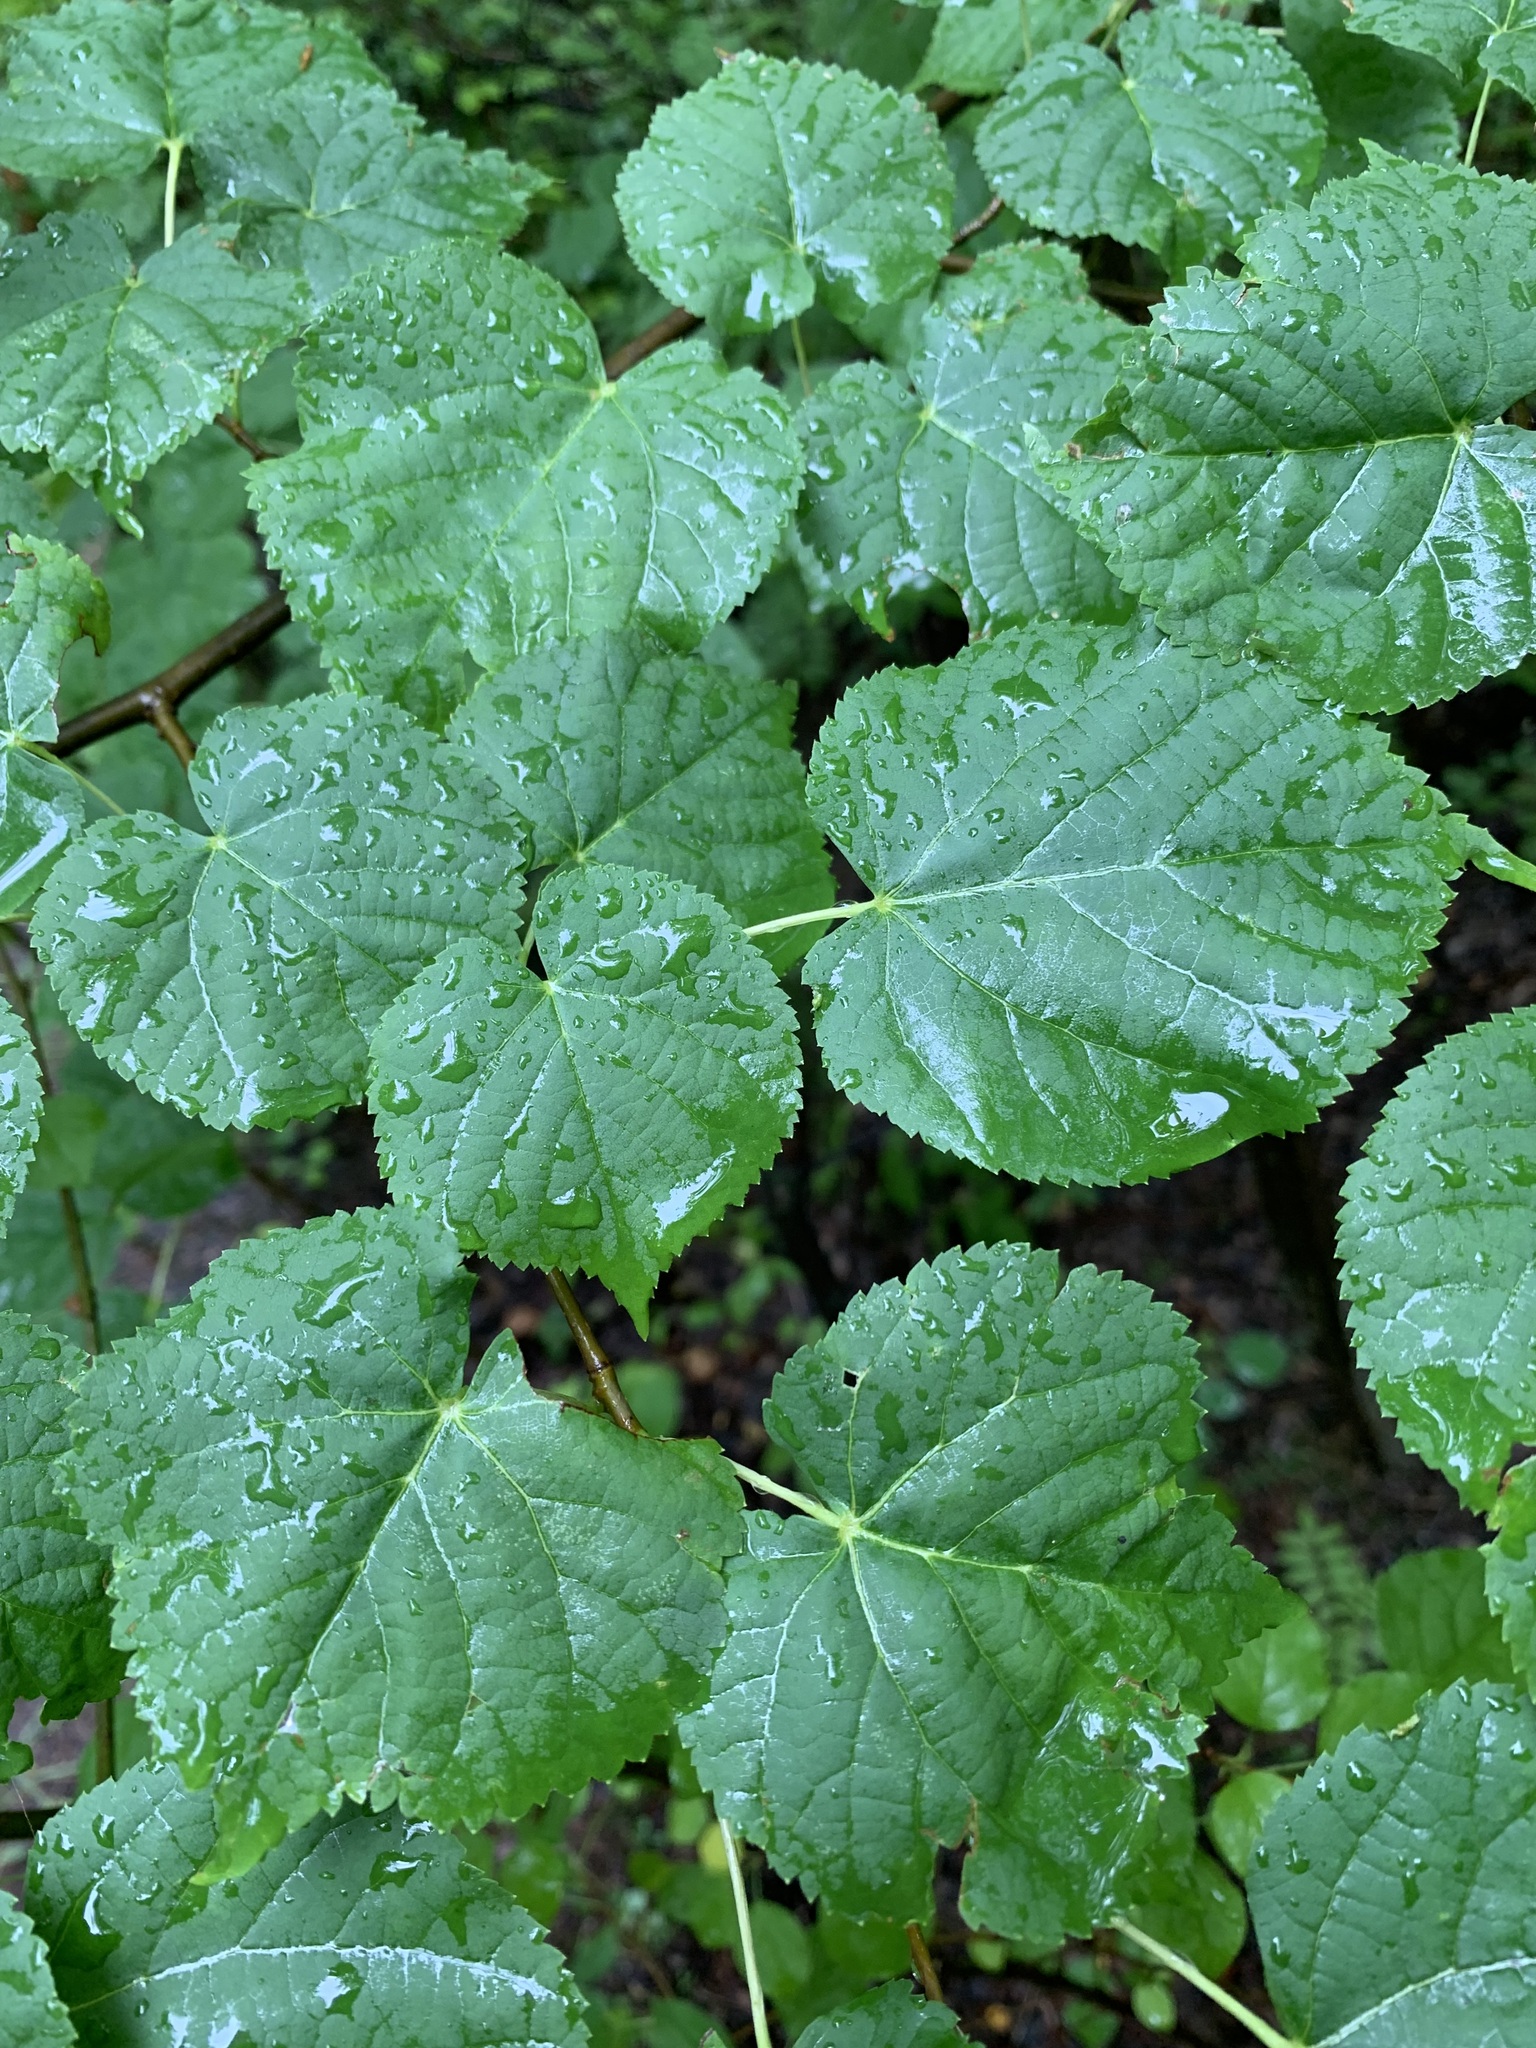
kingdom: Plantae
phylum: Tracheophyta
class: Magnoliopsida
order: Malvales
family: Malvaceae
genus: Tilia
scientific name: Tilia cordata
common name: Small-leaved lime
